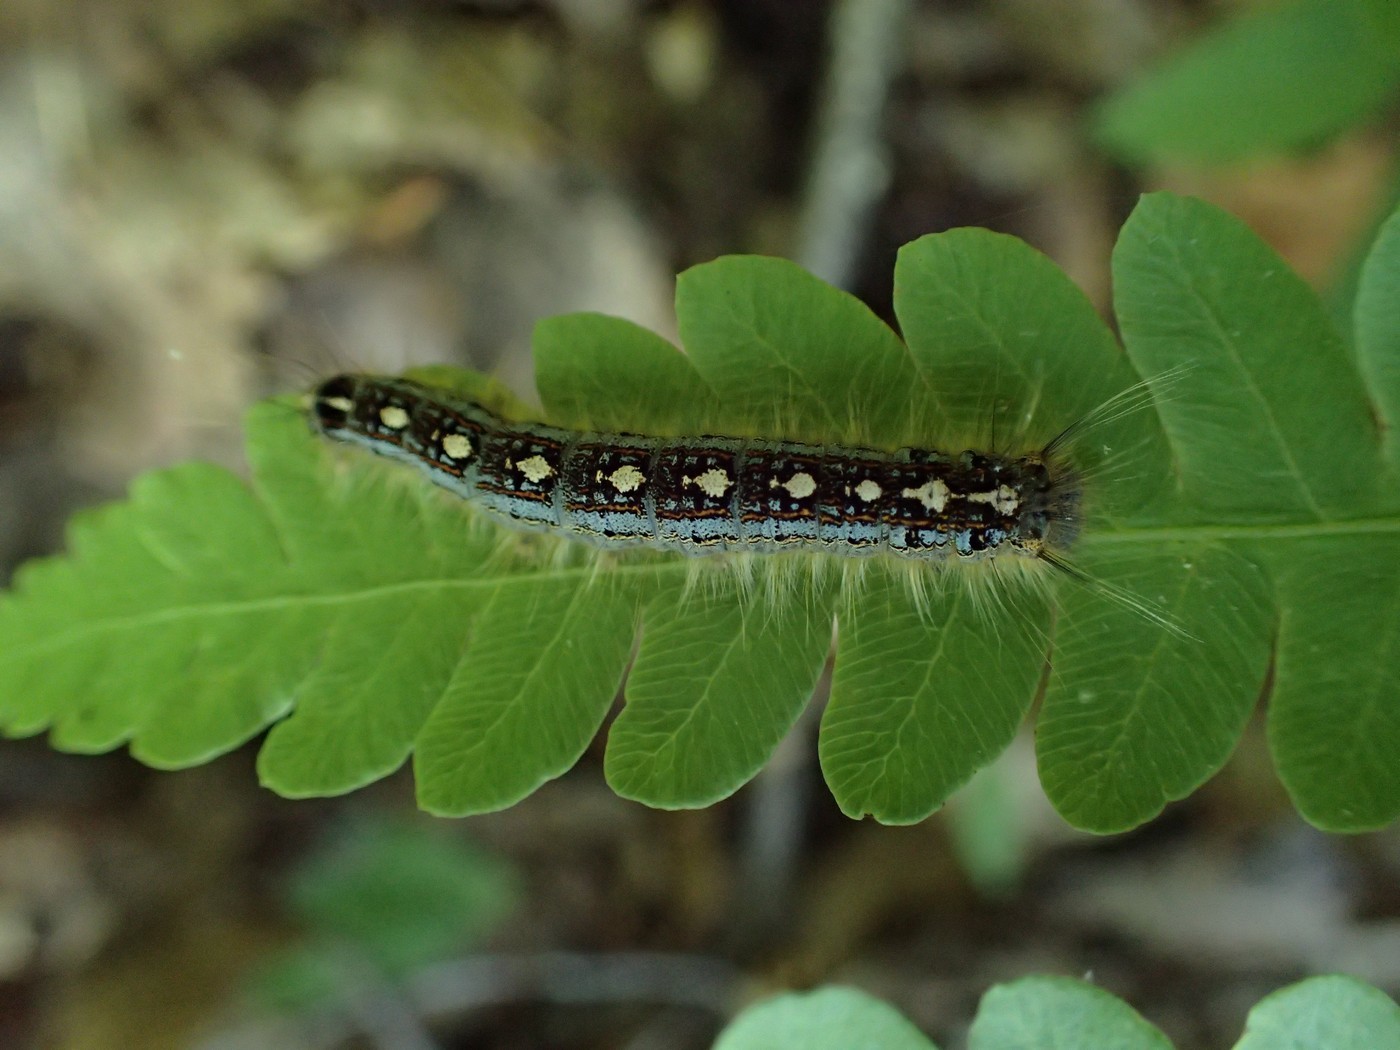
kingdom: Animalia
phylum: Arthropoda
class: Insecta
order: Lepidoptera
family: Lasiocampidae
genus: Malacosoma
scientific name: Malacosoma disstria
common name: Forest tent caterpillar
